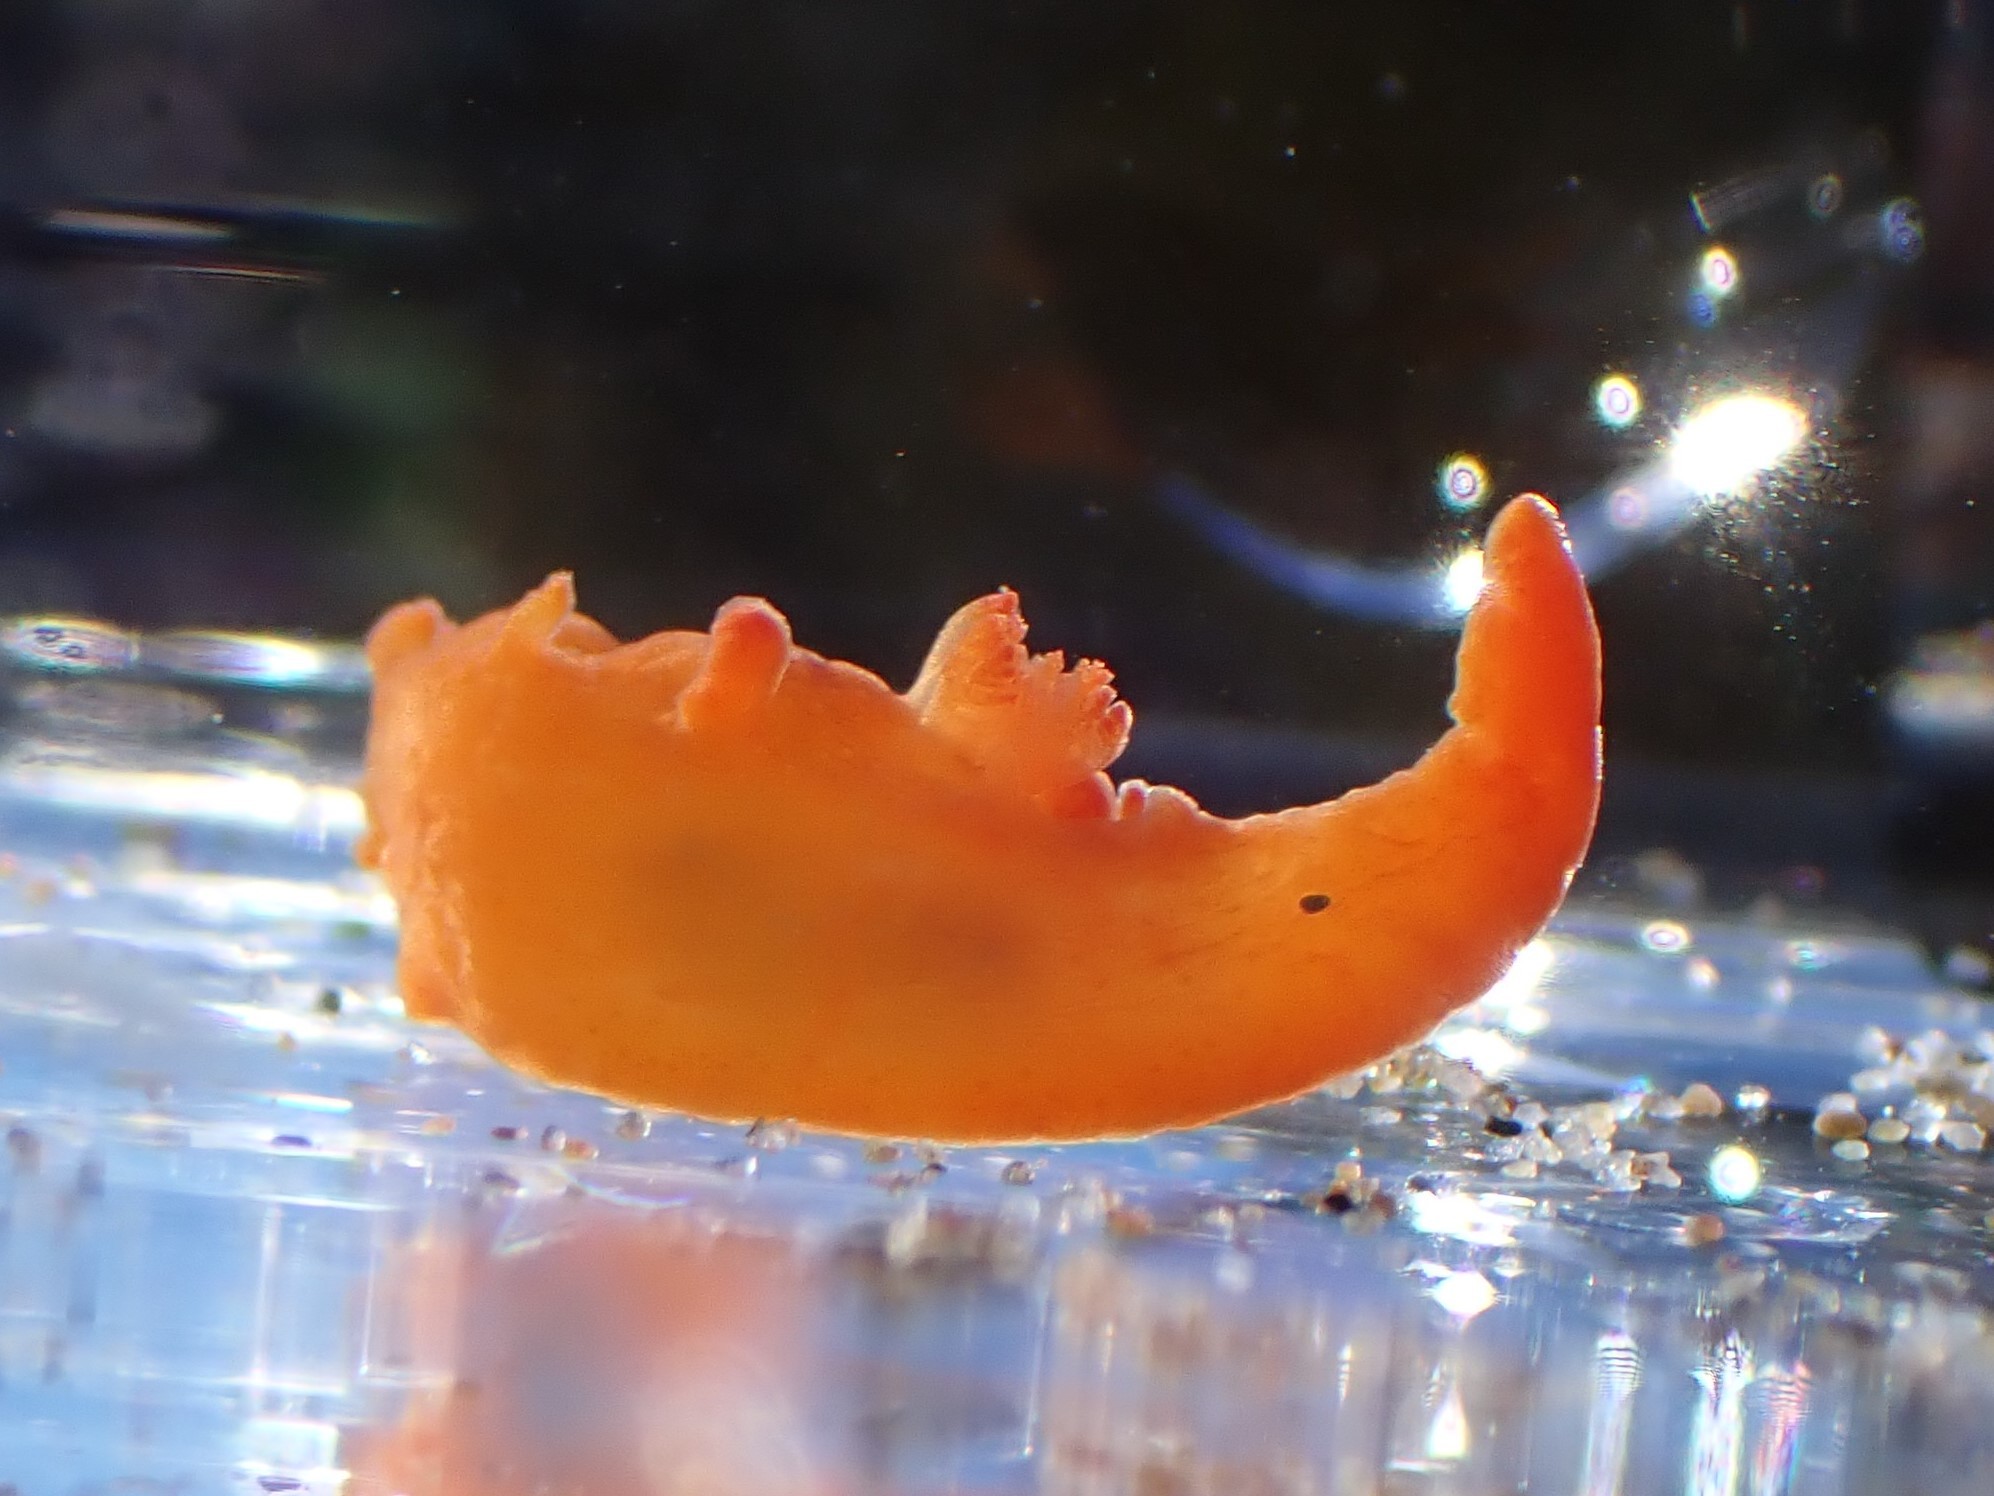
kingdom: Animalia
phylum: Mollusca
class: Gastropoda
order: Nudibranchia
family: Polyceridae
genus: Triopha
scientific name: Triopha maculata
